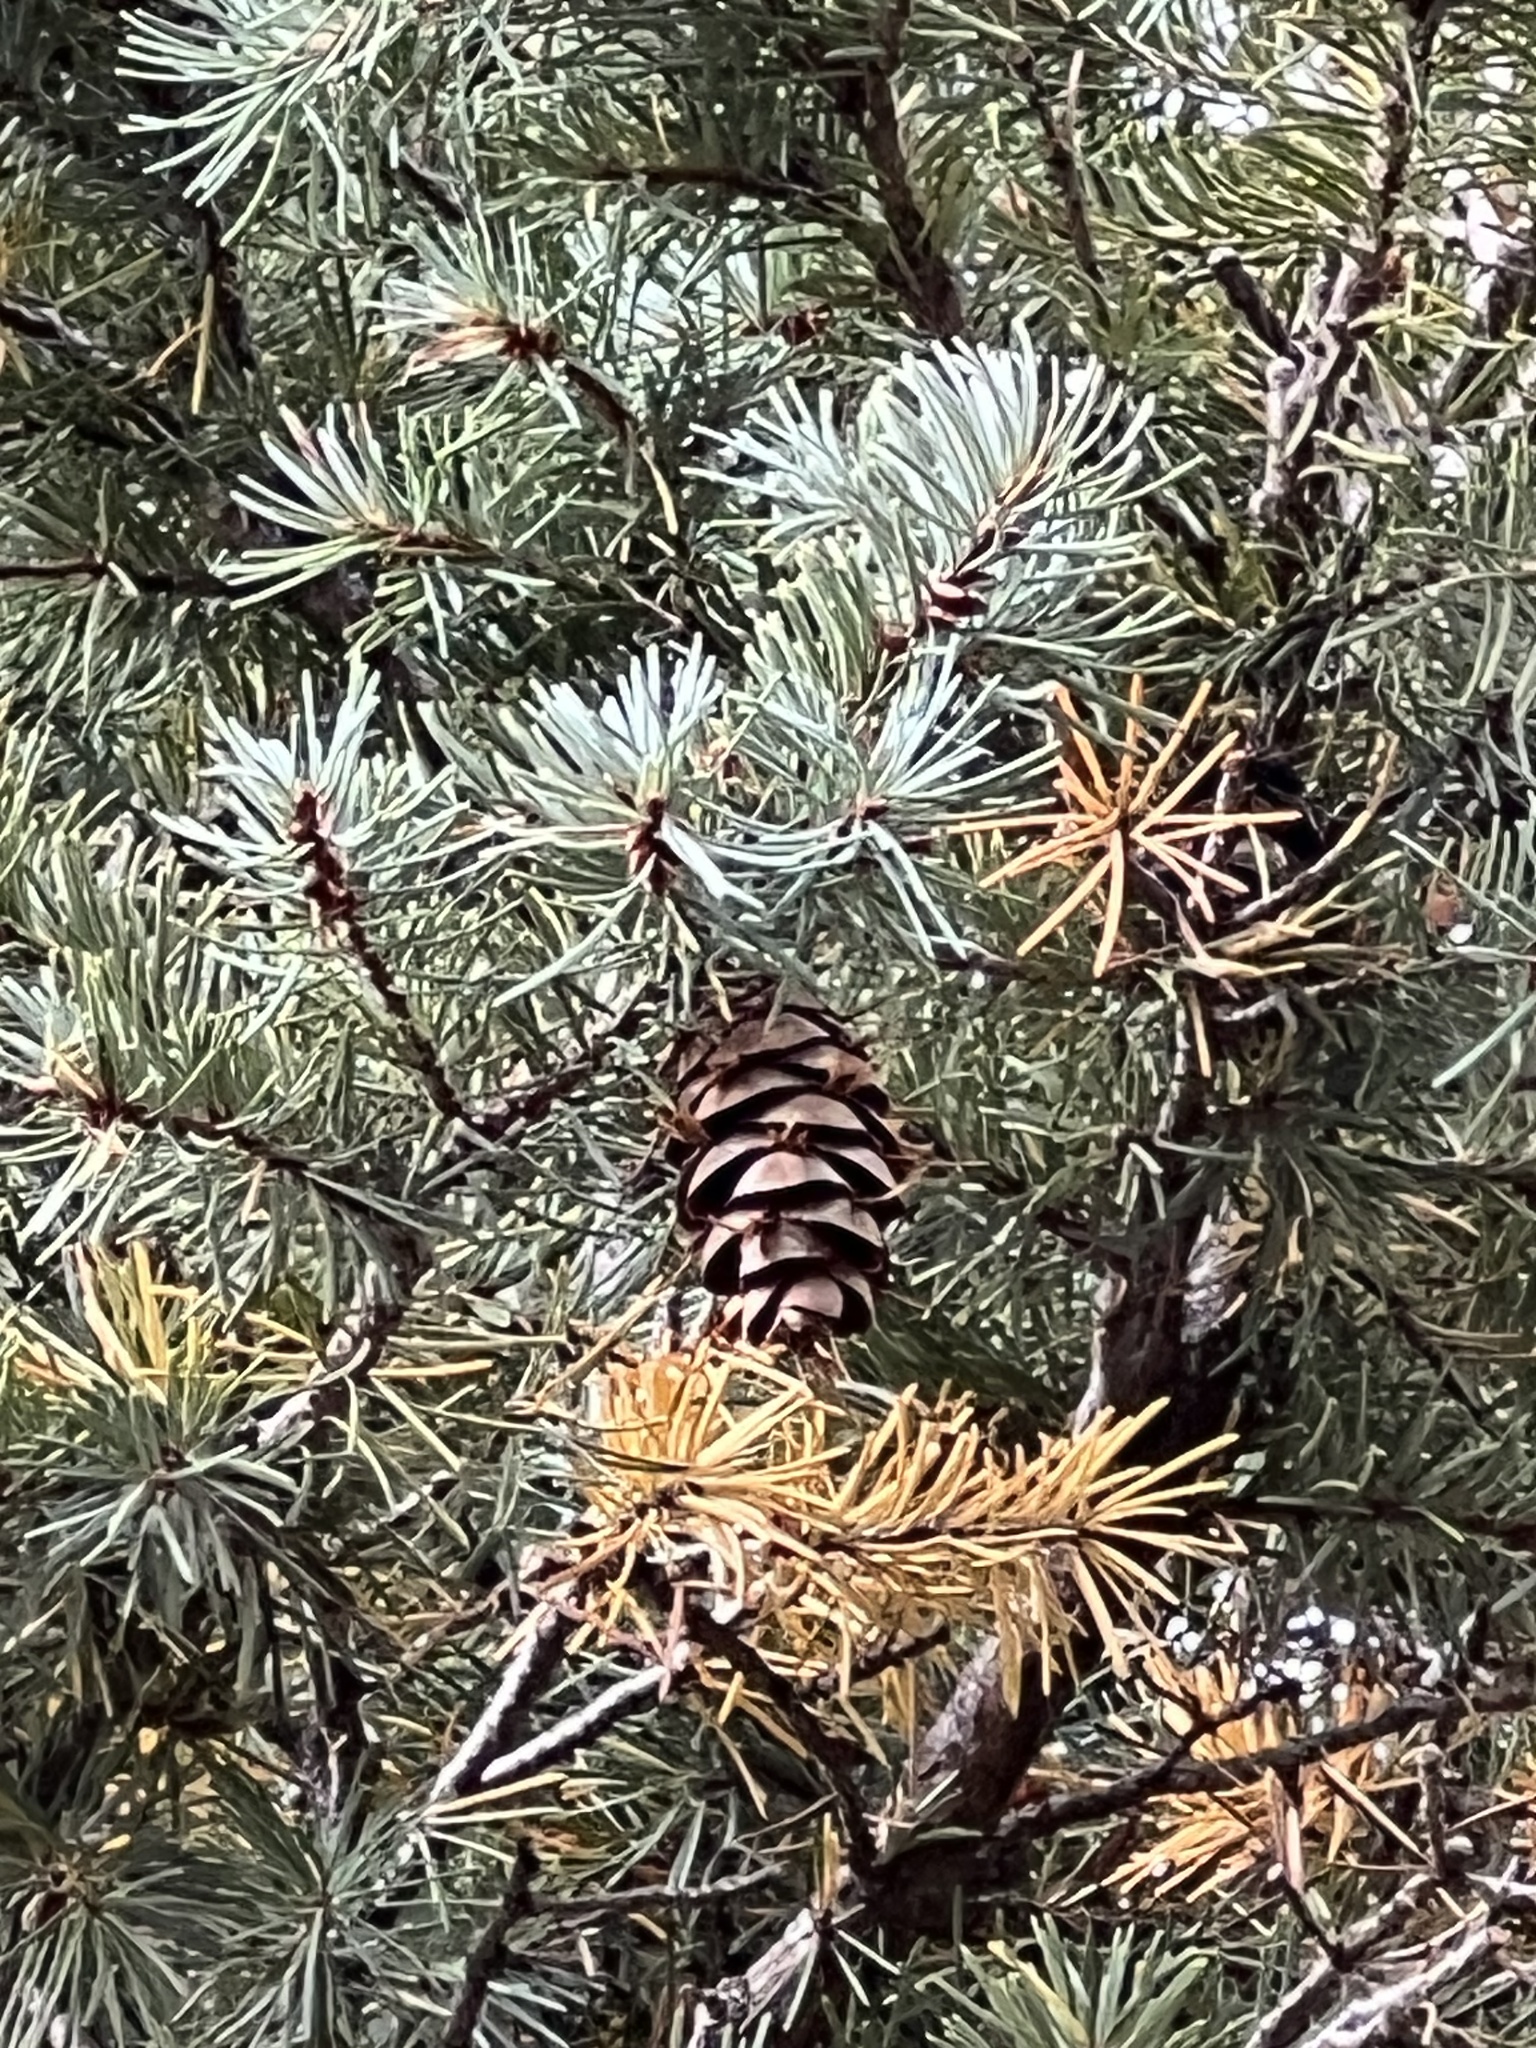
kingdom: Plantae
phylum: Tracheophyta
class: Pinopsida
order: Pinales
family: Pinaceae
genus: Pseudotsuga
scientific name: Pseudotsuga menziesii
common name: Douglas fir
